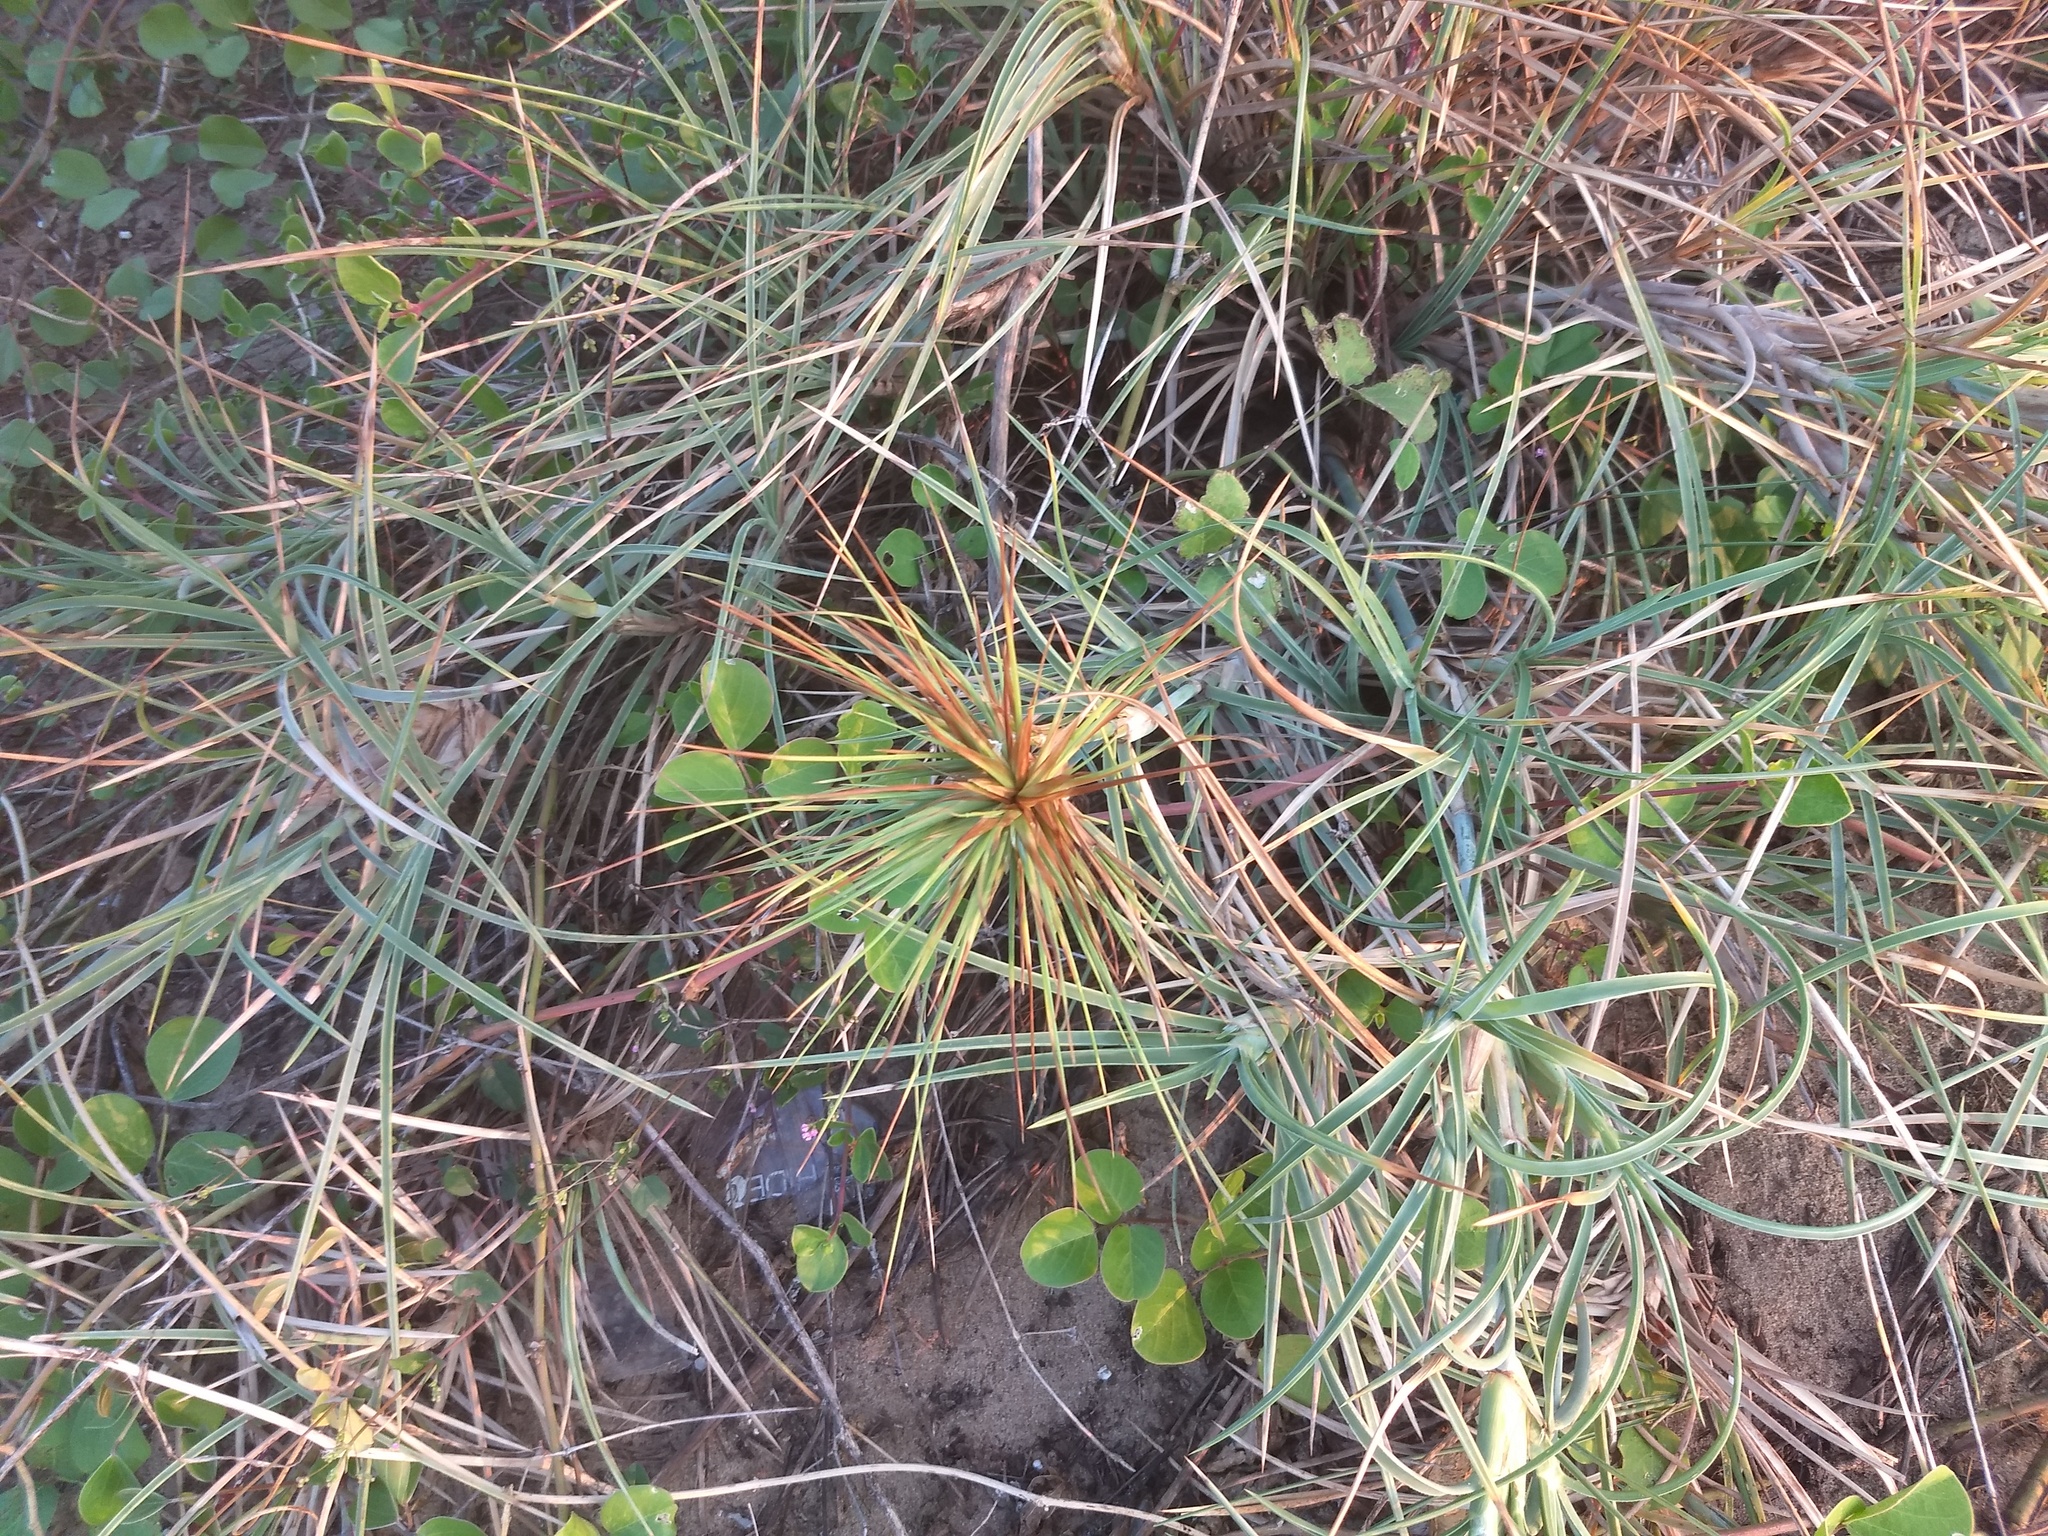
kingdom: Plantae
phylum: Tracheophyta
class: Liliopsida
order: Poales
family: Poaceae
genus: Spinifex
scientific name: Spinifex littoreus
